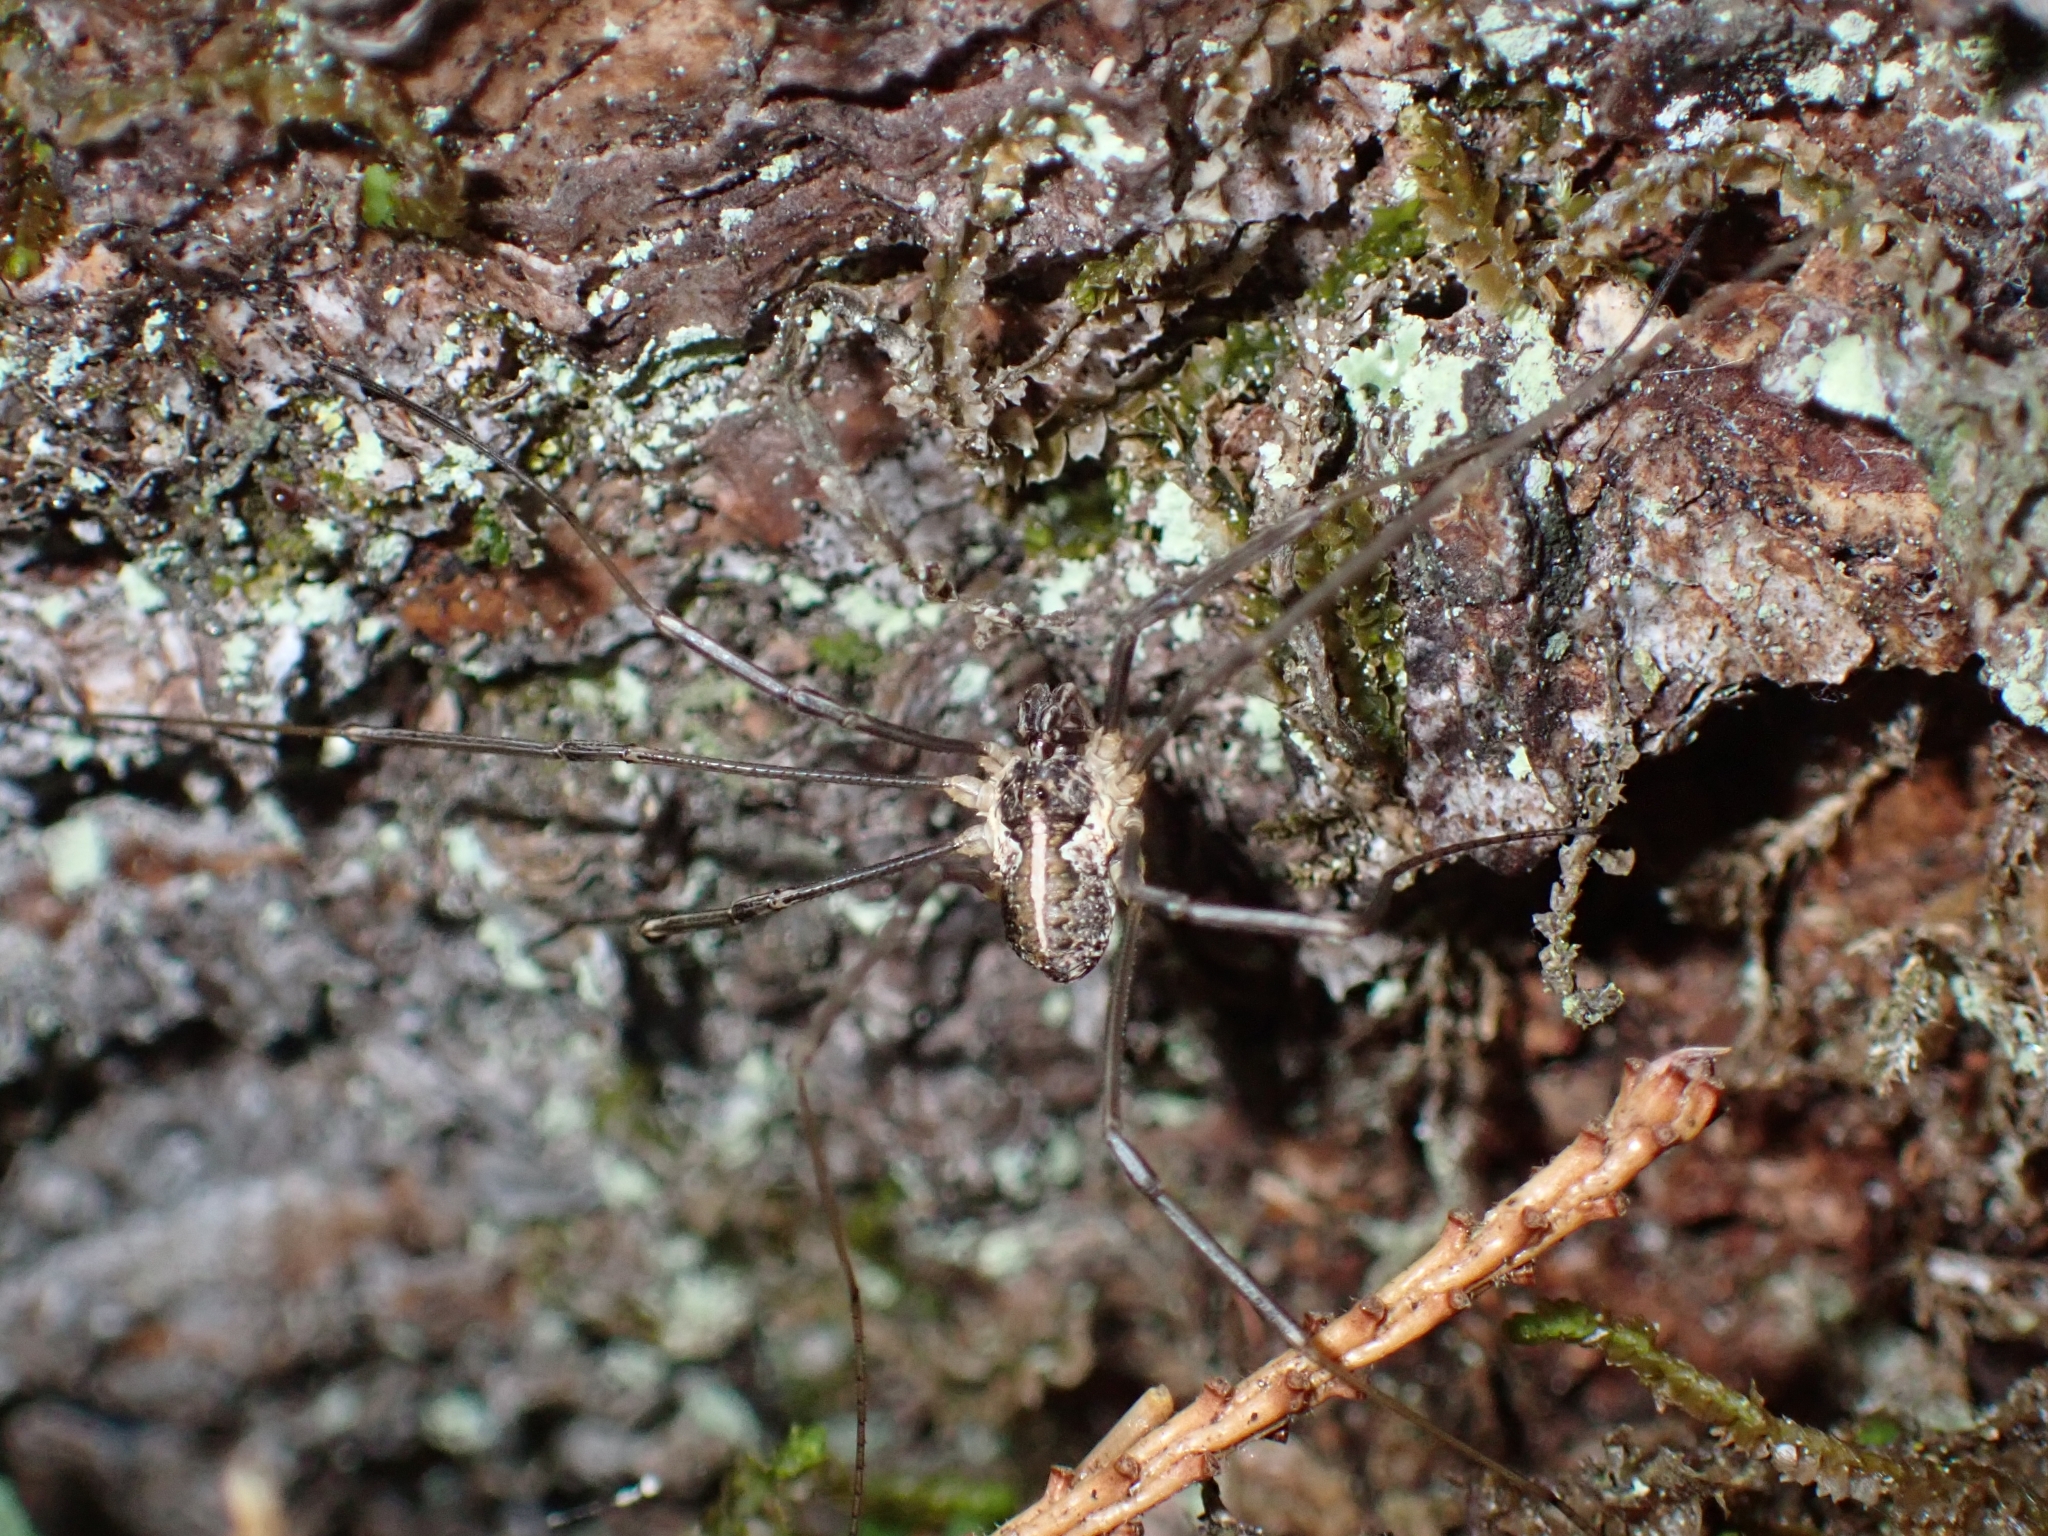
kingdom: Animalia
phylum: Arthropoda
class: Arachnida
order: Opiliones
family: Phalangiidae
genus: Mitopus
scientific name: Mitopus morio
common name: Saddleback harvestman
